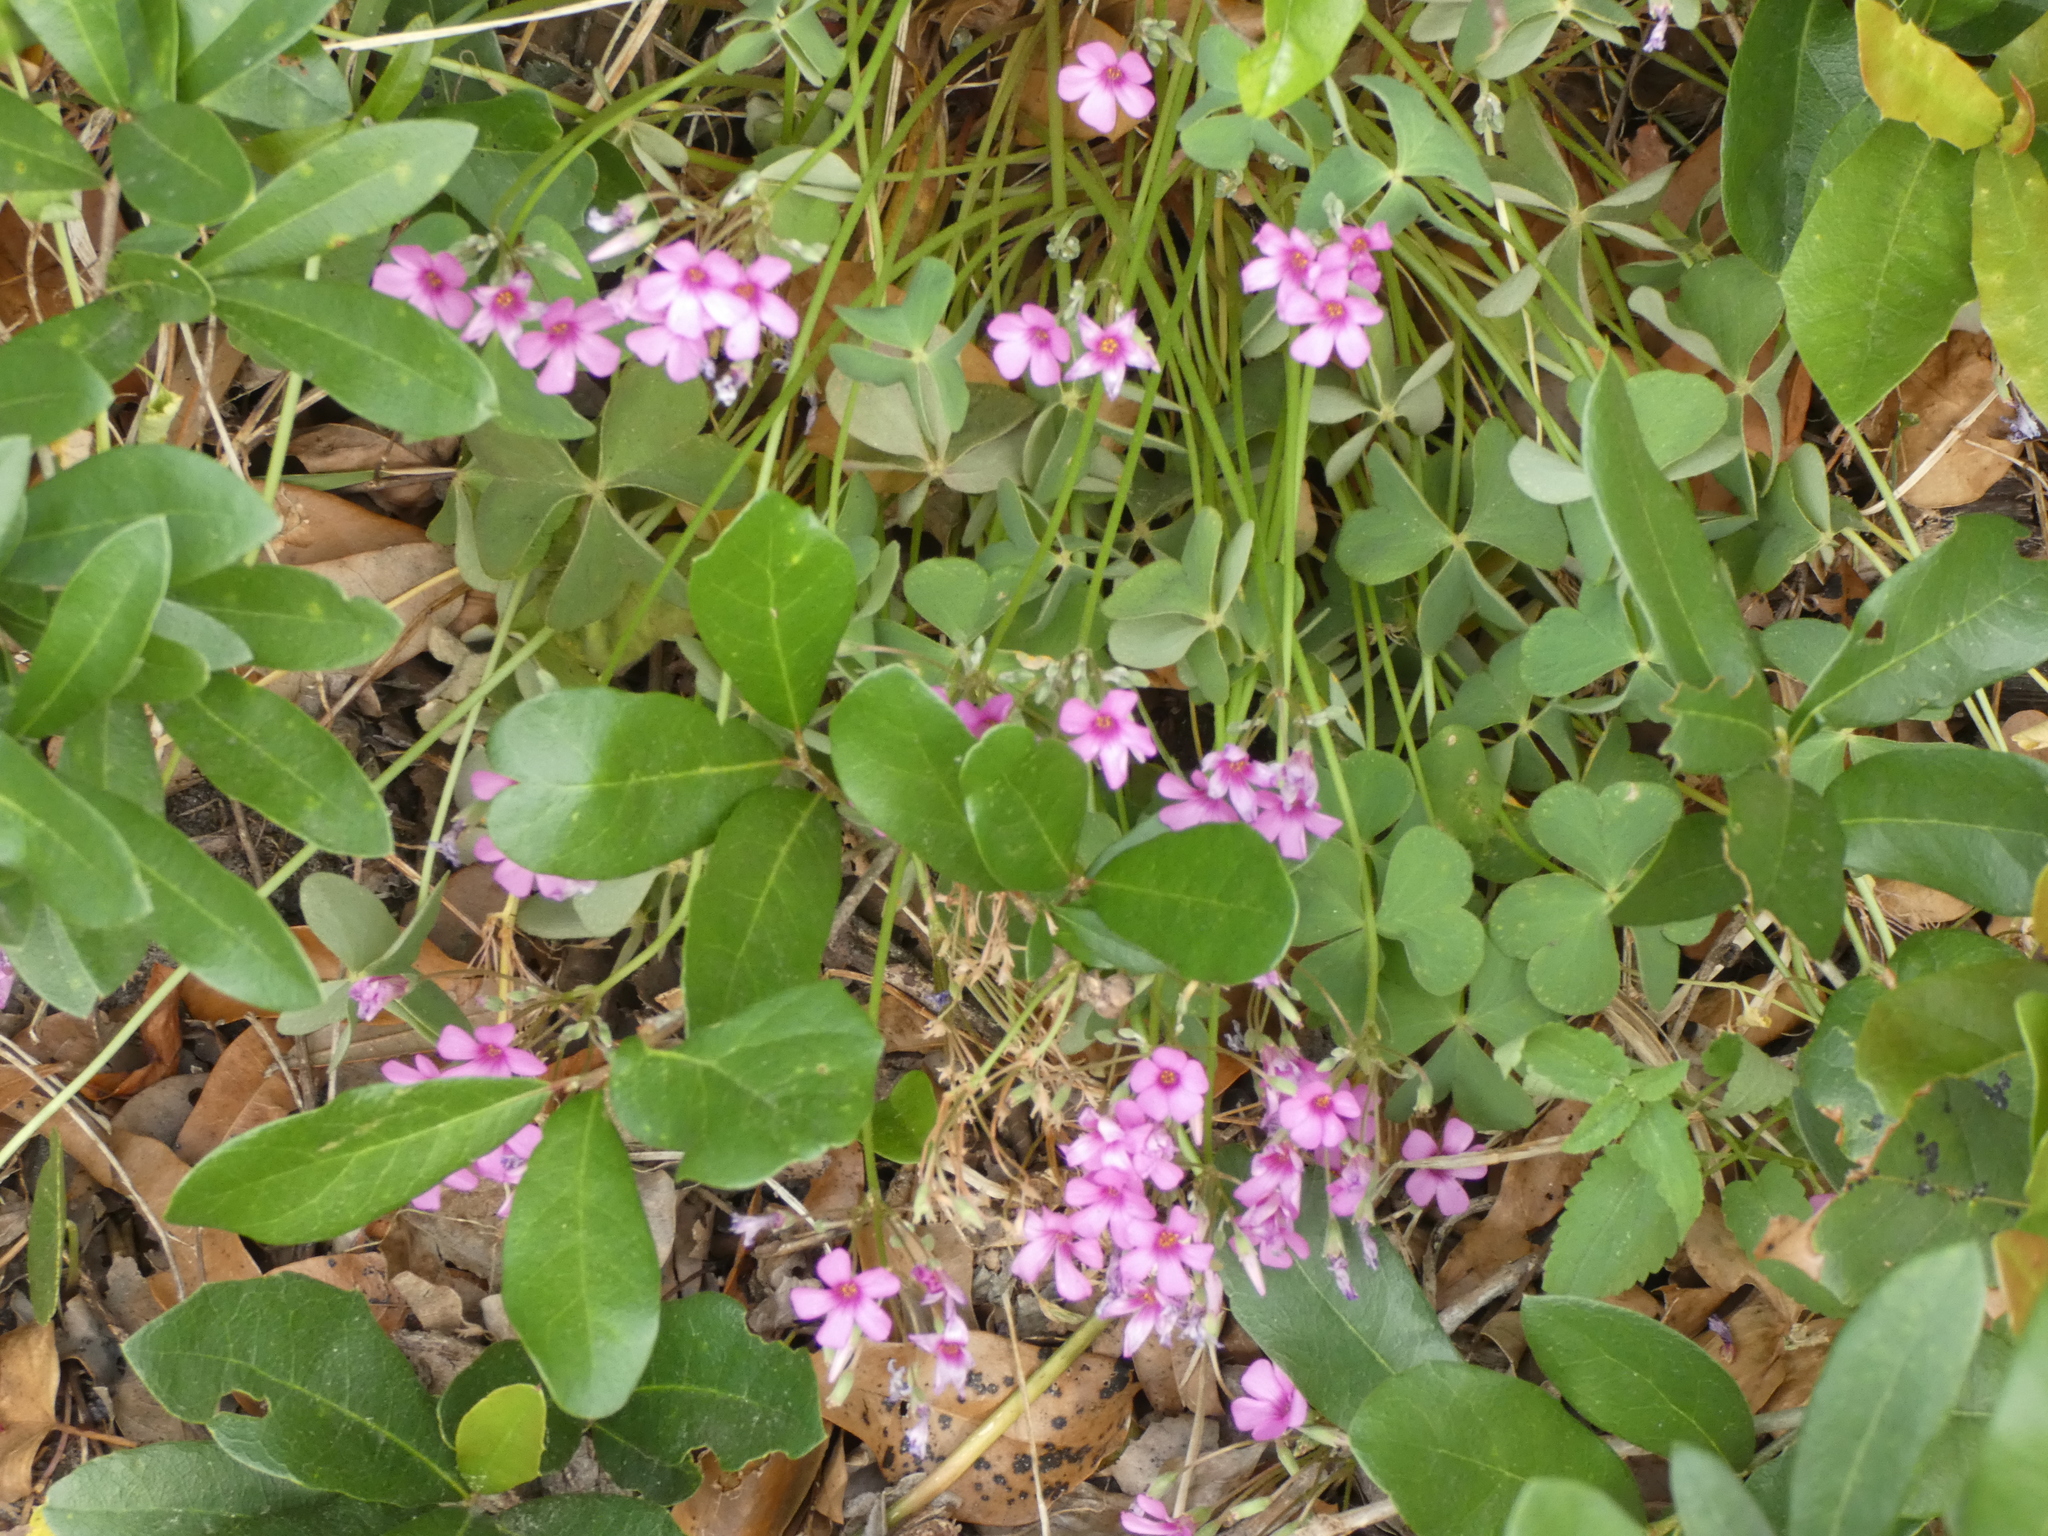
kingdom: Plantae
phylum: Tracheophyta
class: Magnoliopsida
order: Oxalidales
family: Oxalidaceae
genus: Oxalis
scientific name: Oxalis articulata
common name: Pink-sorrel
